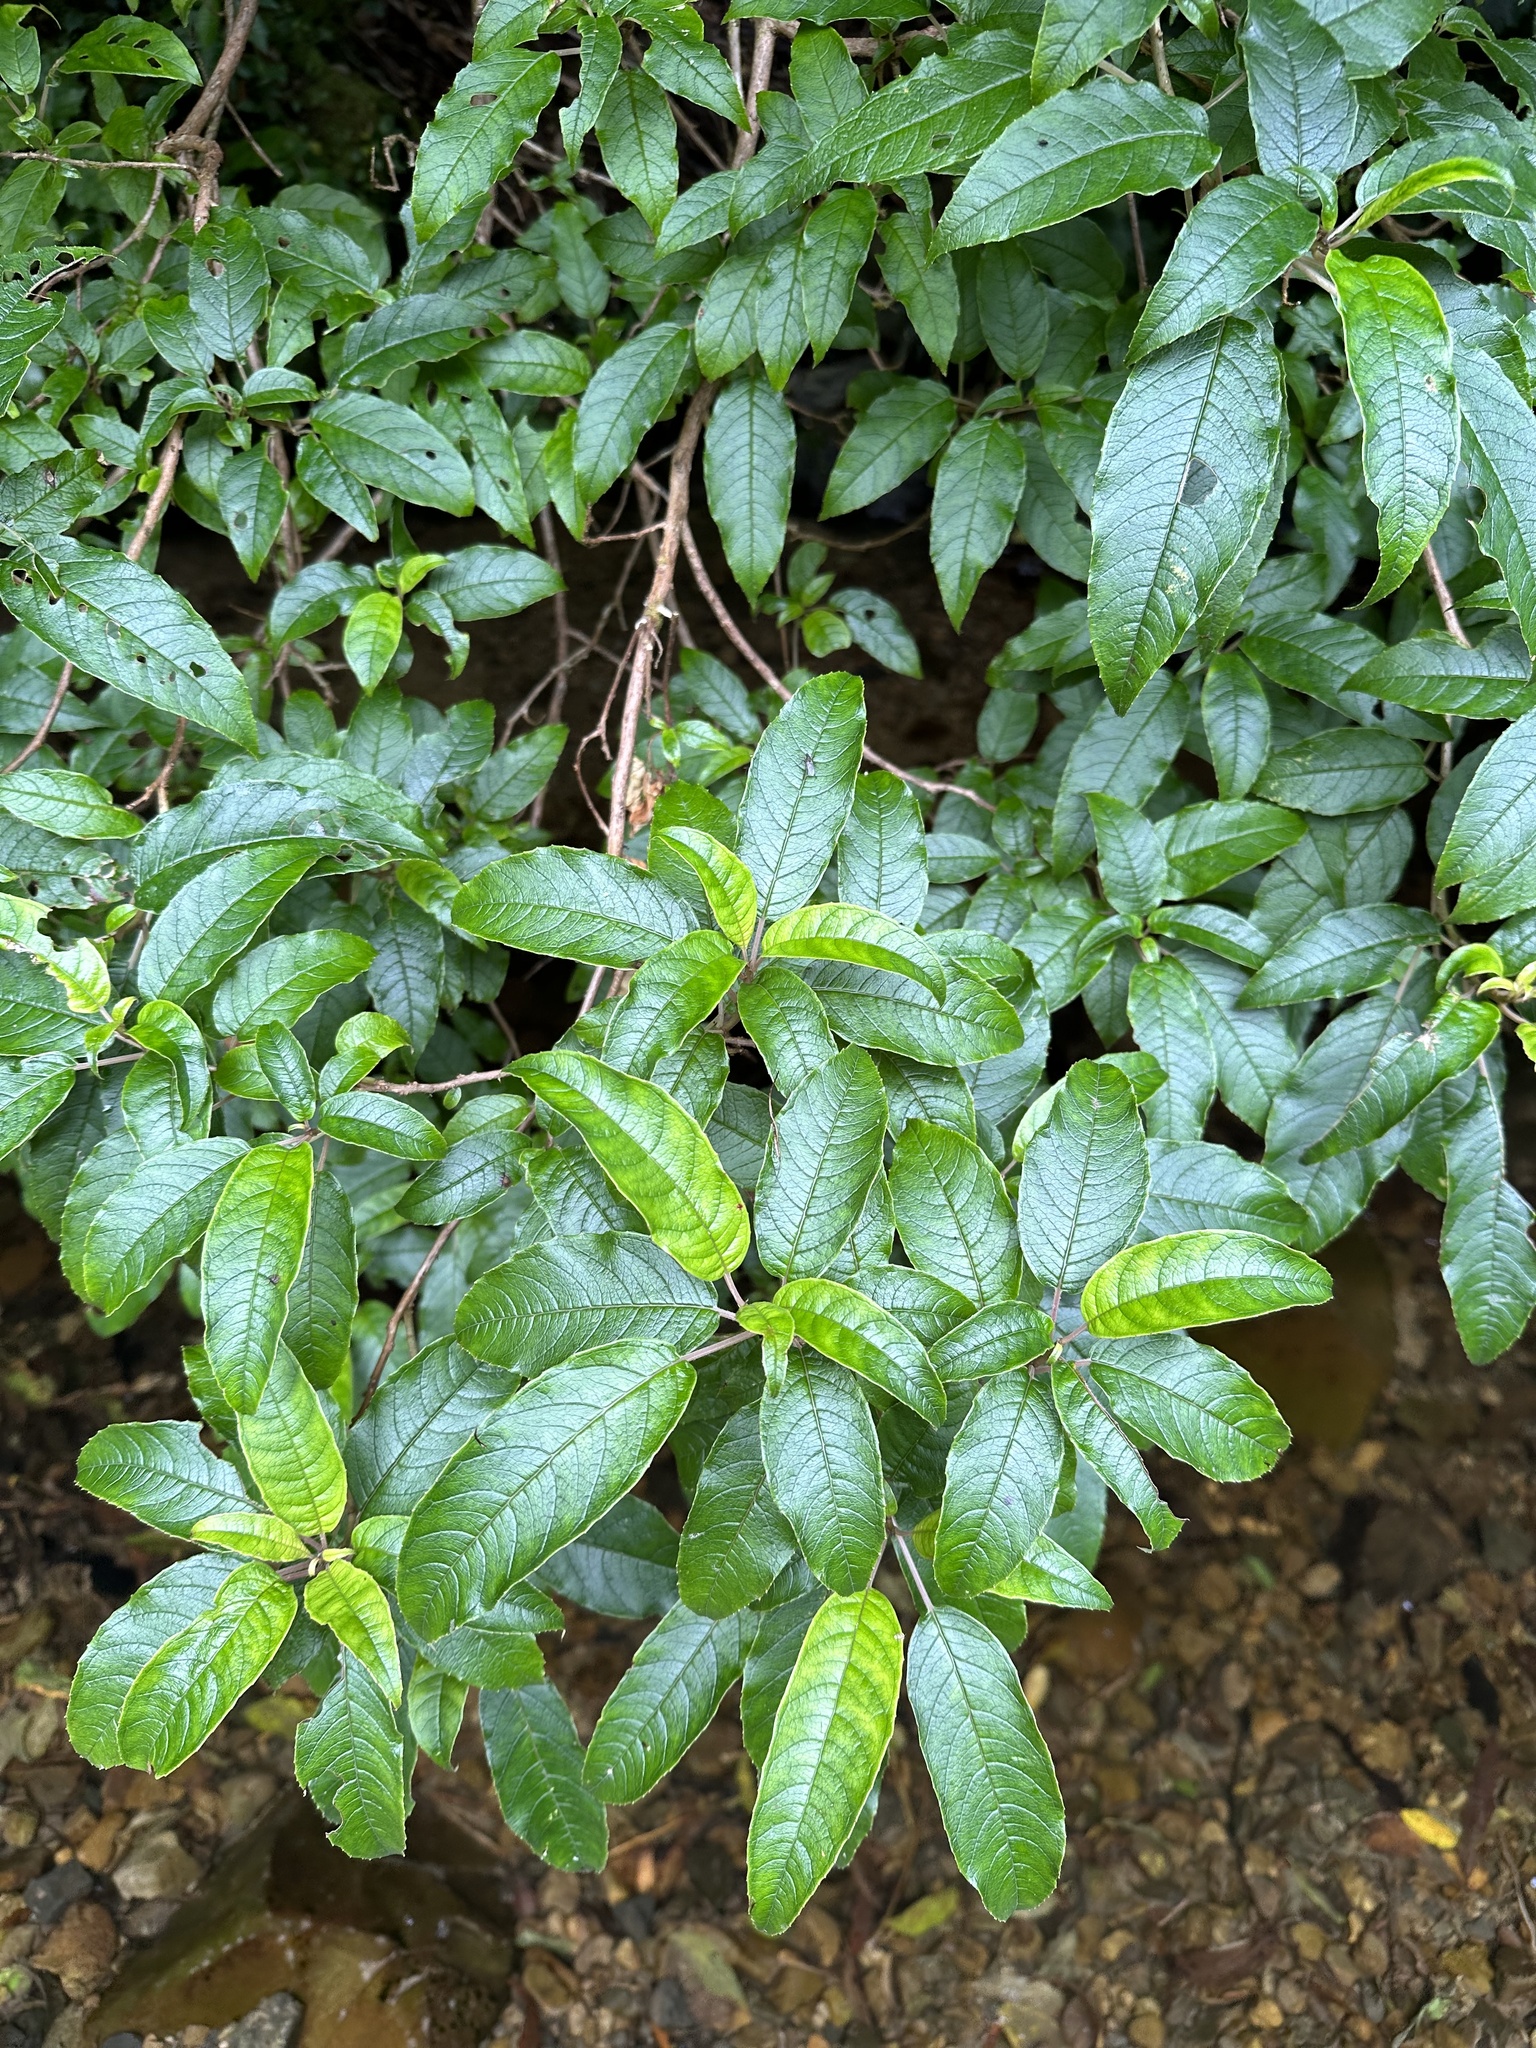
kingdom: Plantae
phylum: Tracheophyta
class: Magnoliopsida
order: Myrtales
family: Onagraceae
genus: Fuchsia
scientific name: Fuchsia excorticata
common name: Tree fuchsia
